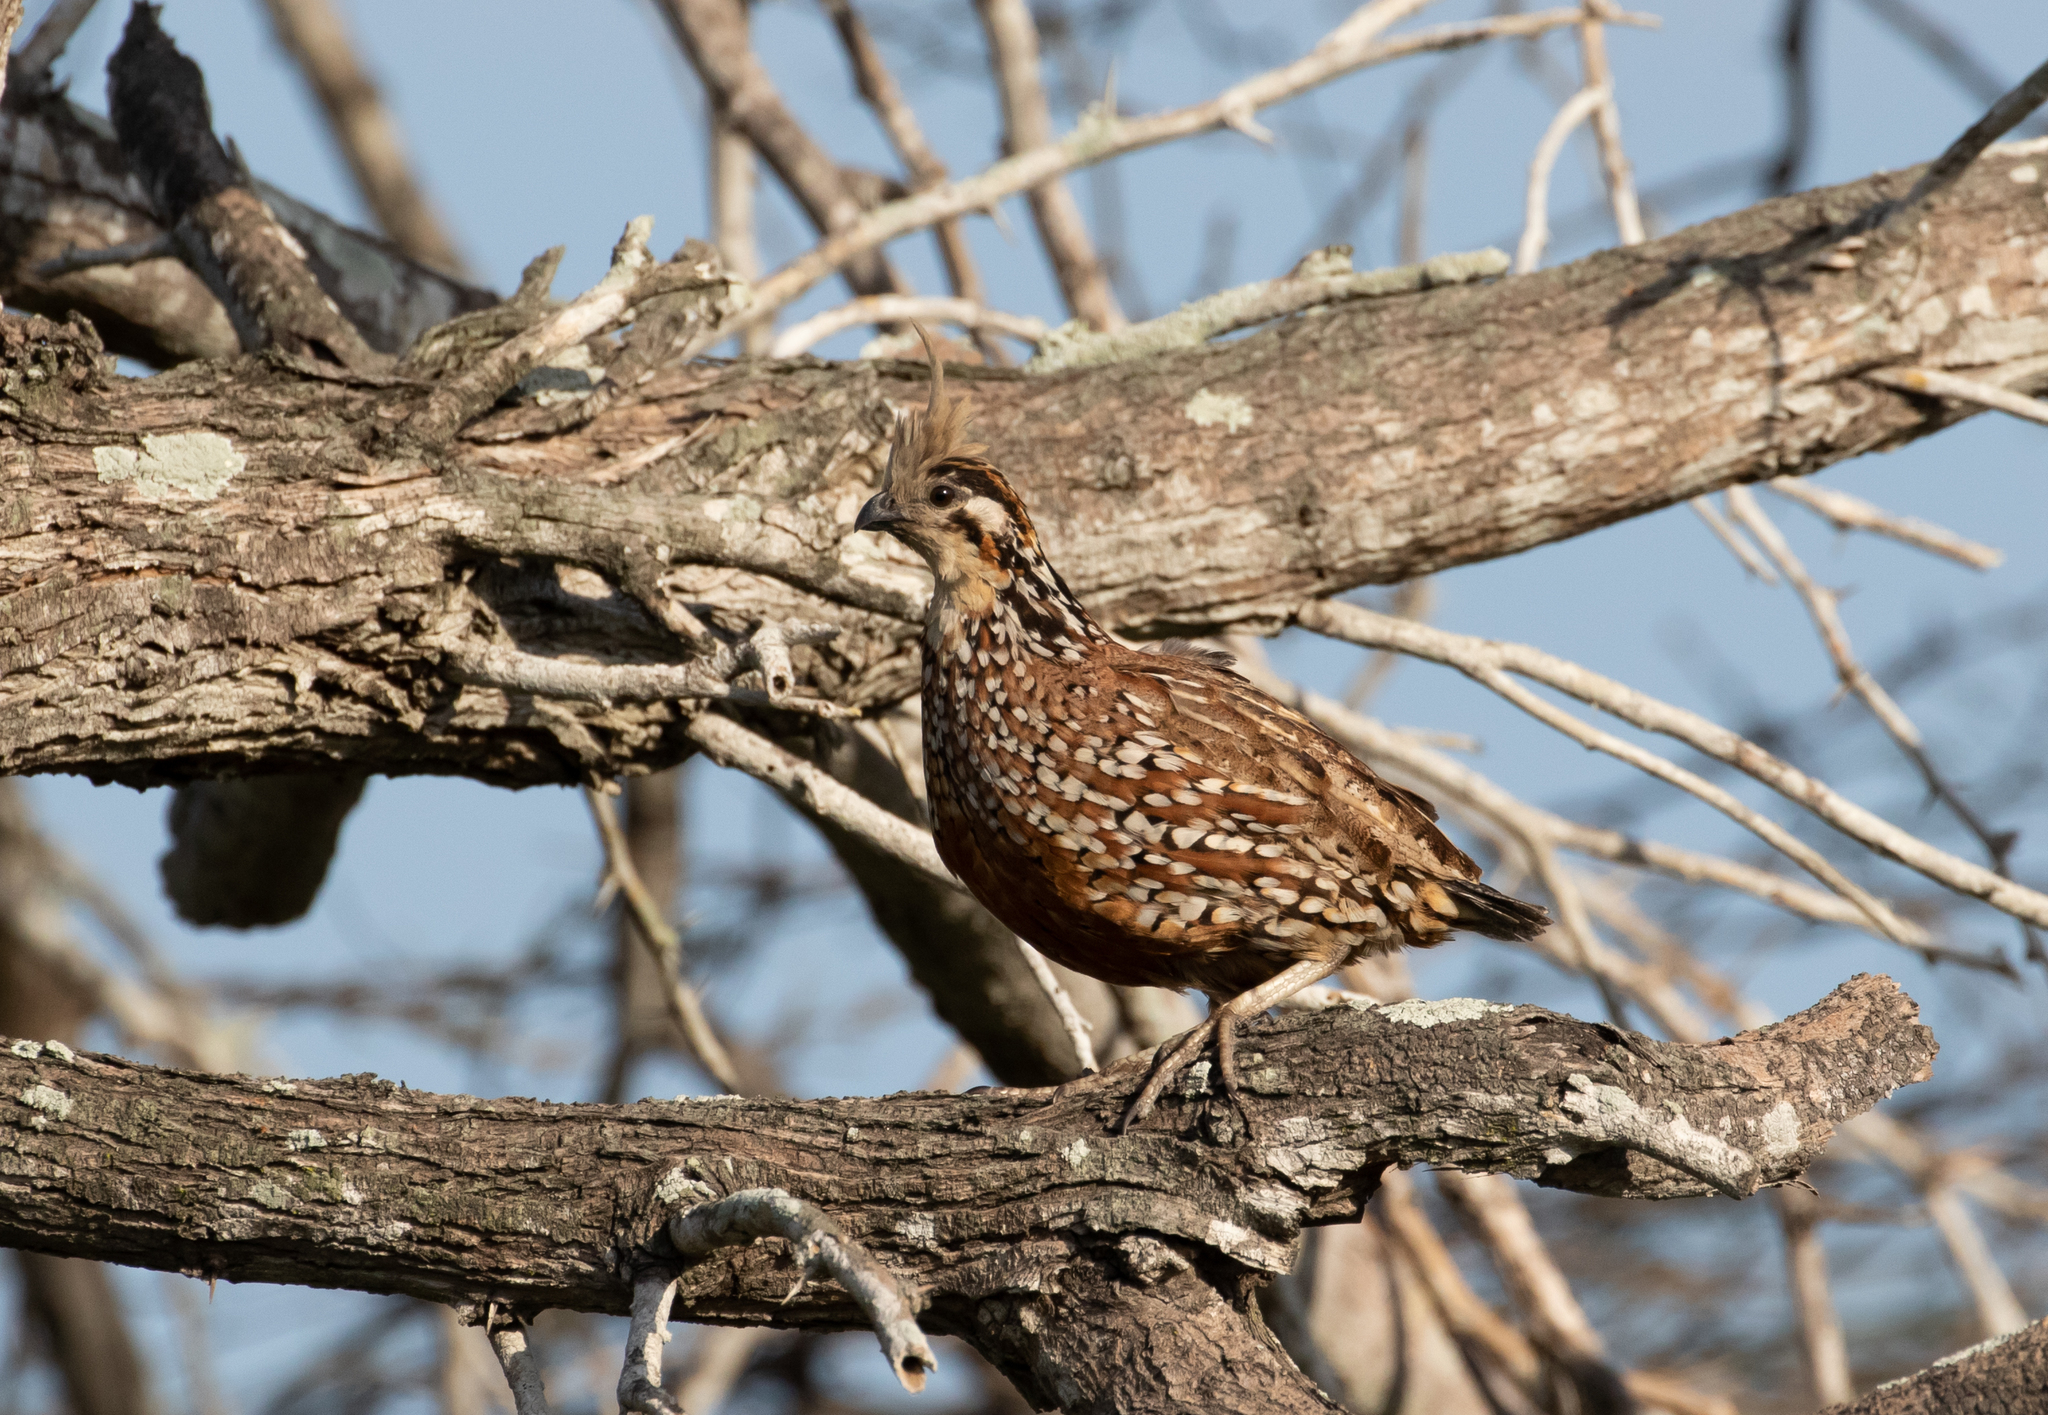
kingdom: Animalia
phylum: Chordata
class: Aves
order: Galliformes
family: Odontophoridae
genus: Colinus
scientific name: Colinus cristatus
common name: Crested bobwhite
